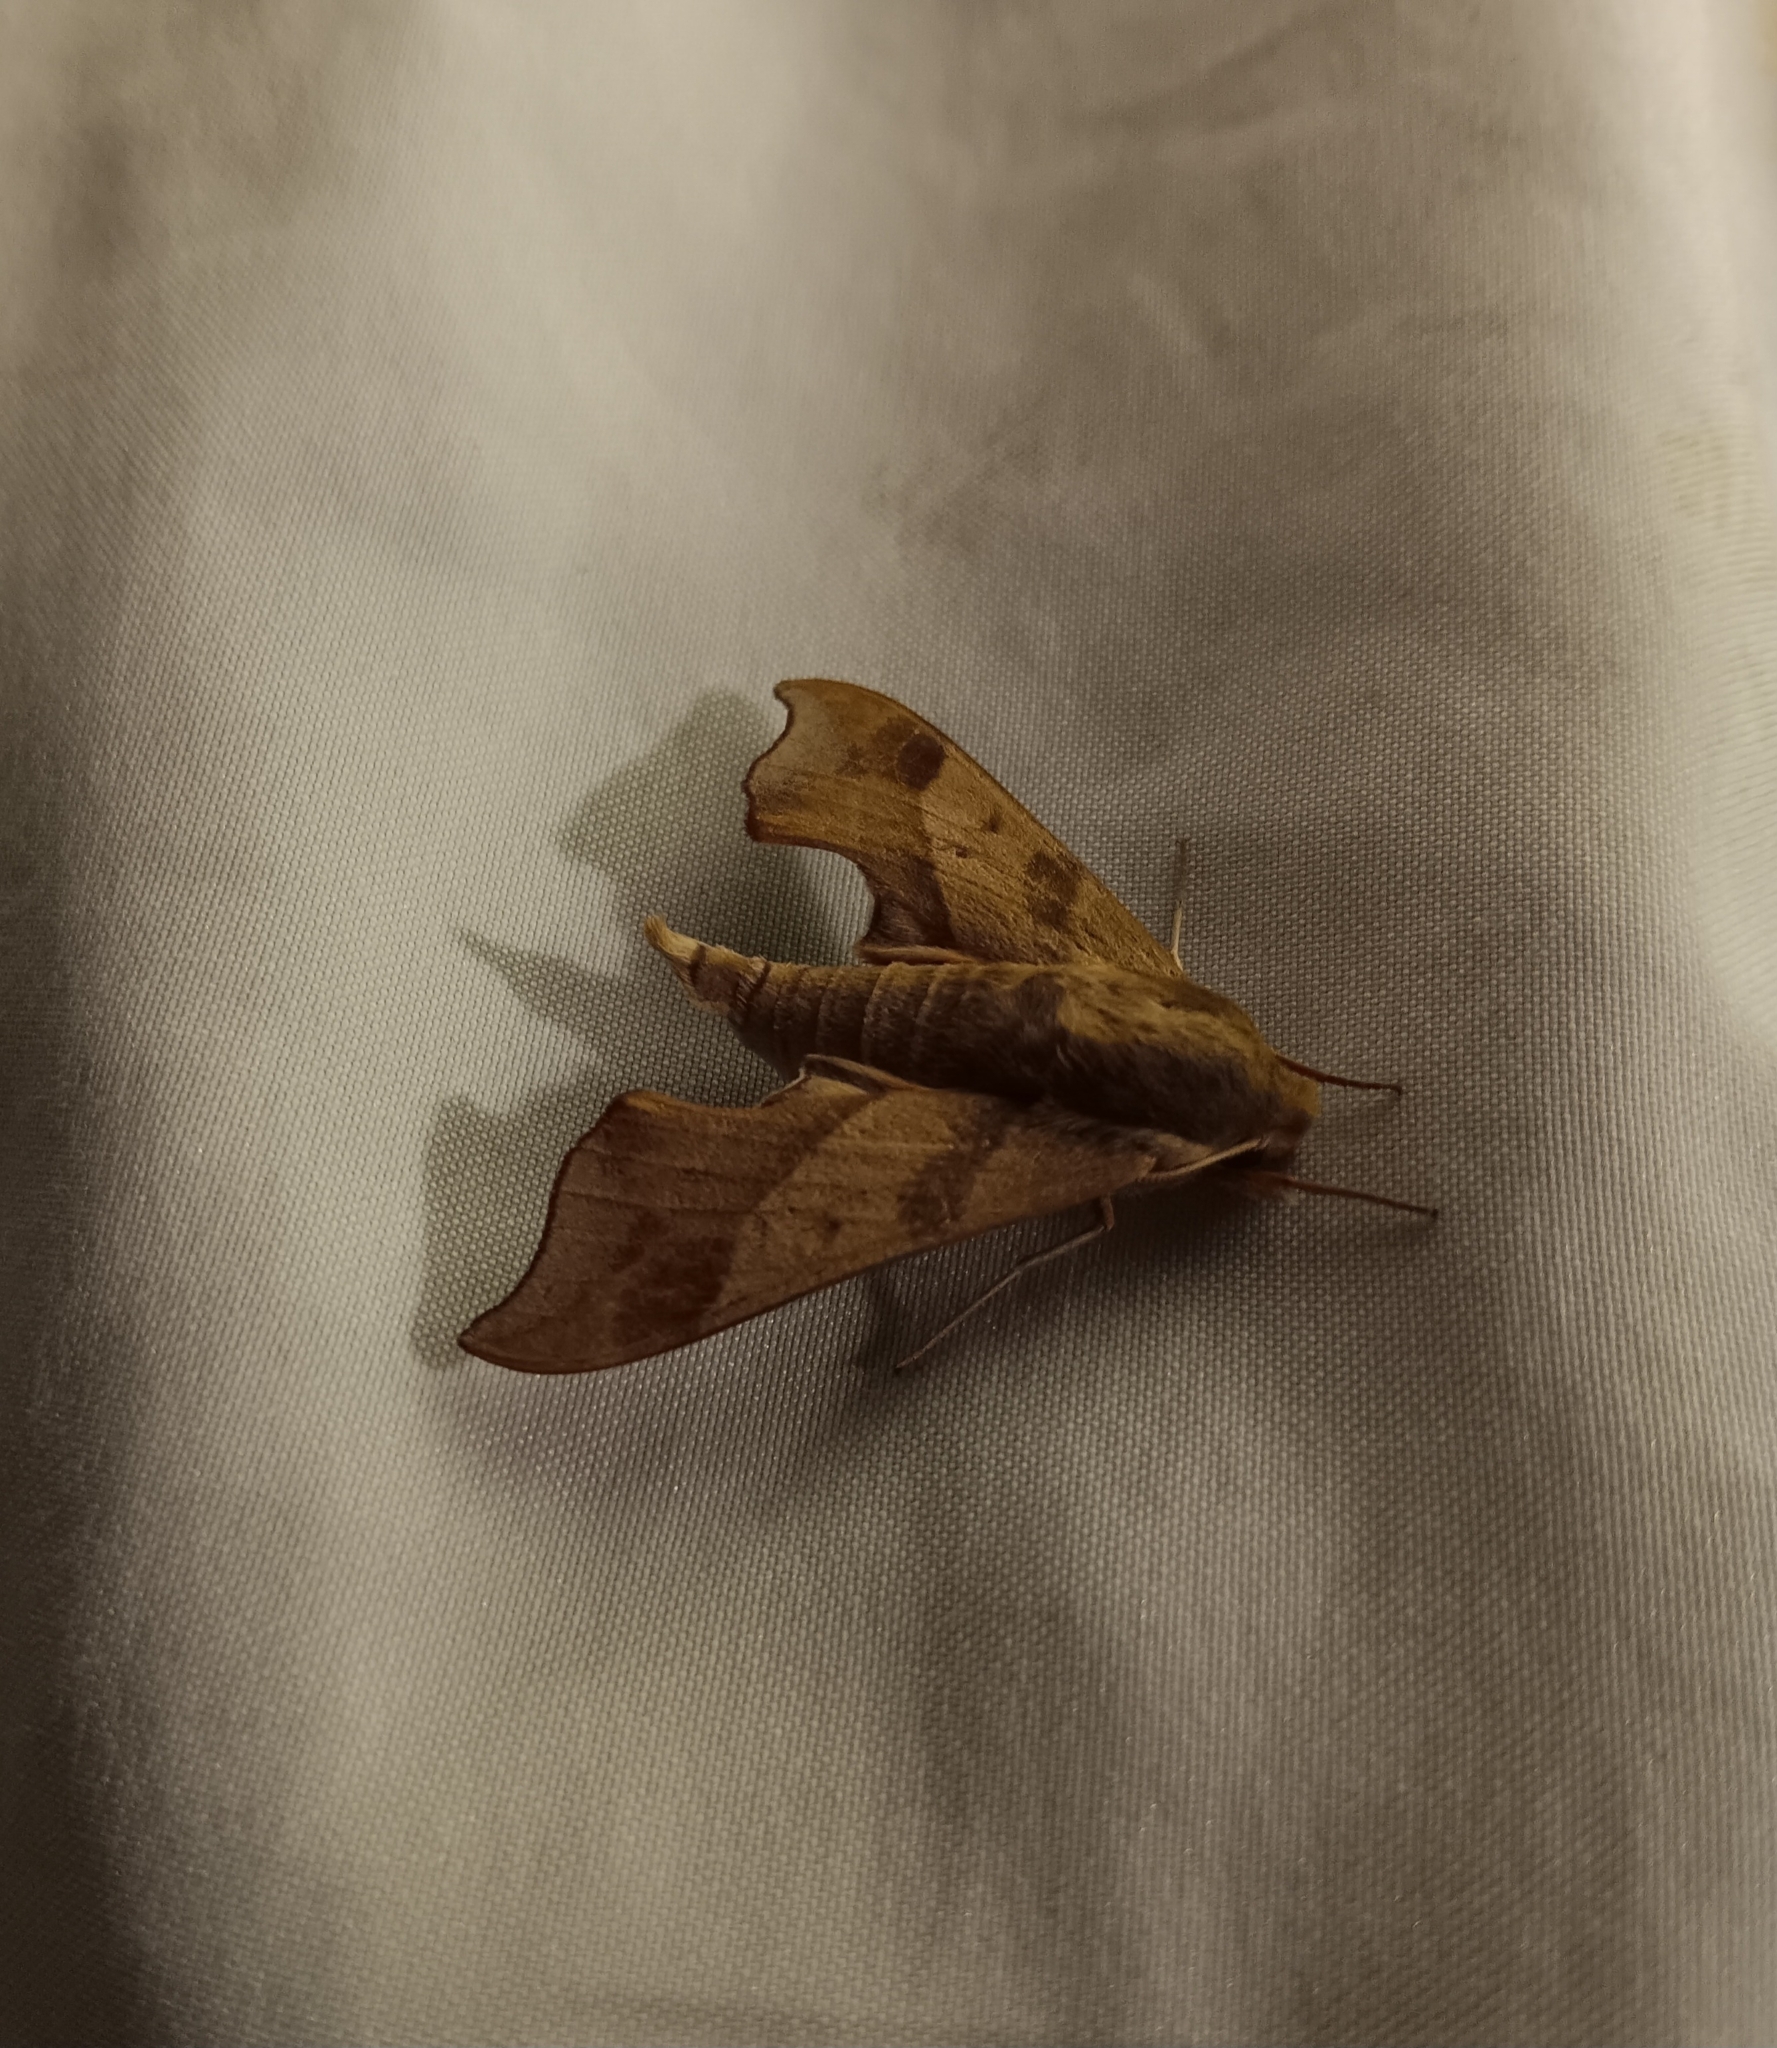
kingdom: Animalia
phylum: Arthropoda
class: Insecta
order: Lepidoptera
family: Sphingidae
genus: Darapsa
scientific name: Darapsa myron
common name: Hog sphinx
